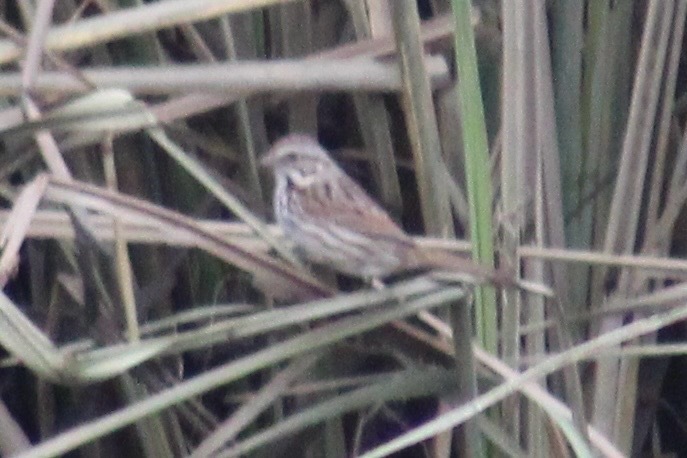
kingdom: Animalia
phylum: Chordata
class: Aves
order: Passeriformes
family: Passerellidae
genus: Melospiza
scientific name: Melospiza melodia
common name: Song sparrow
